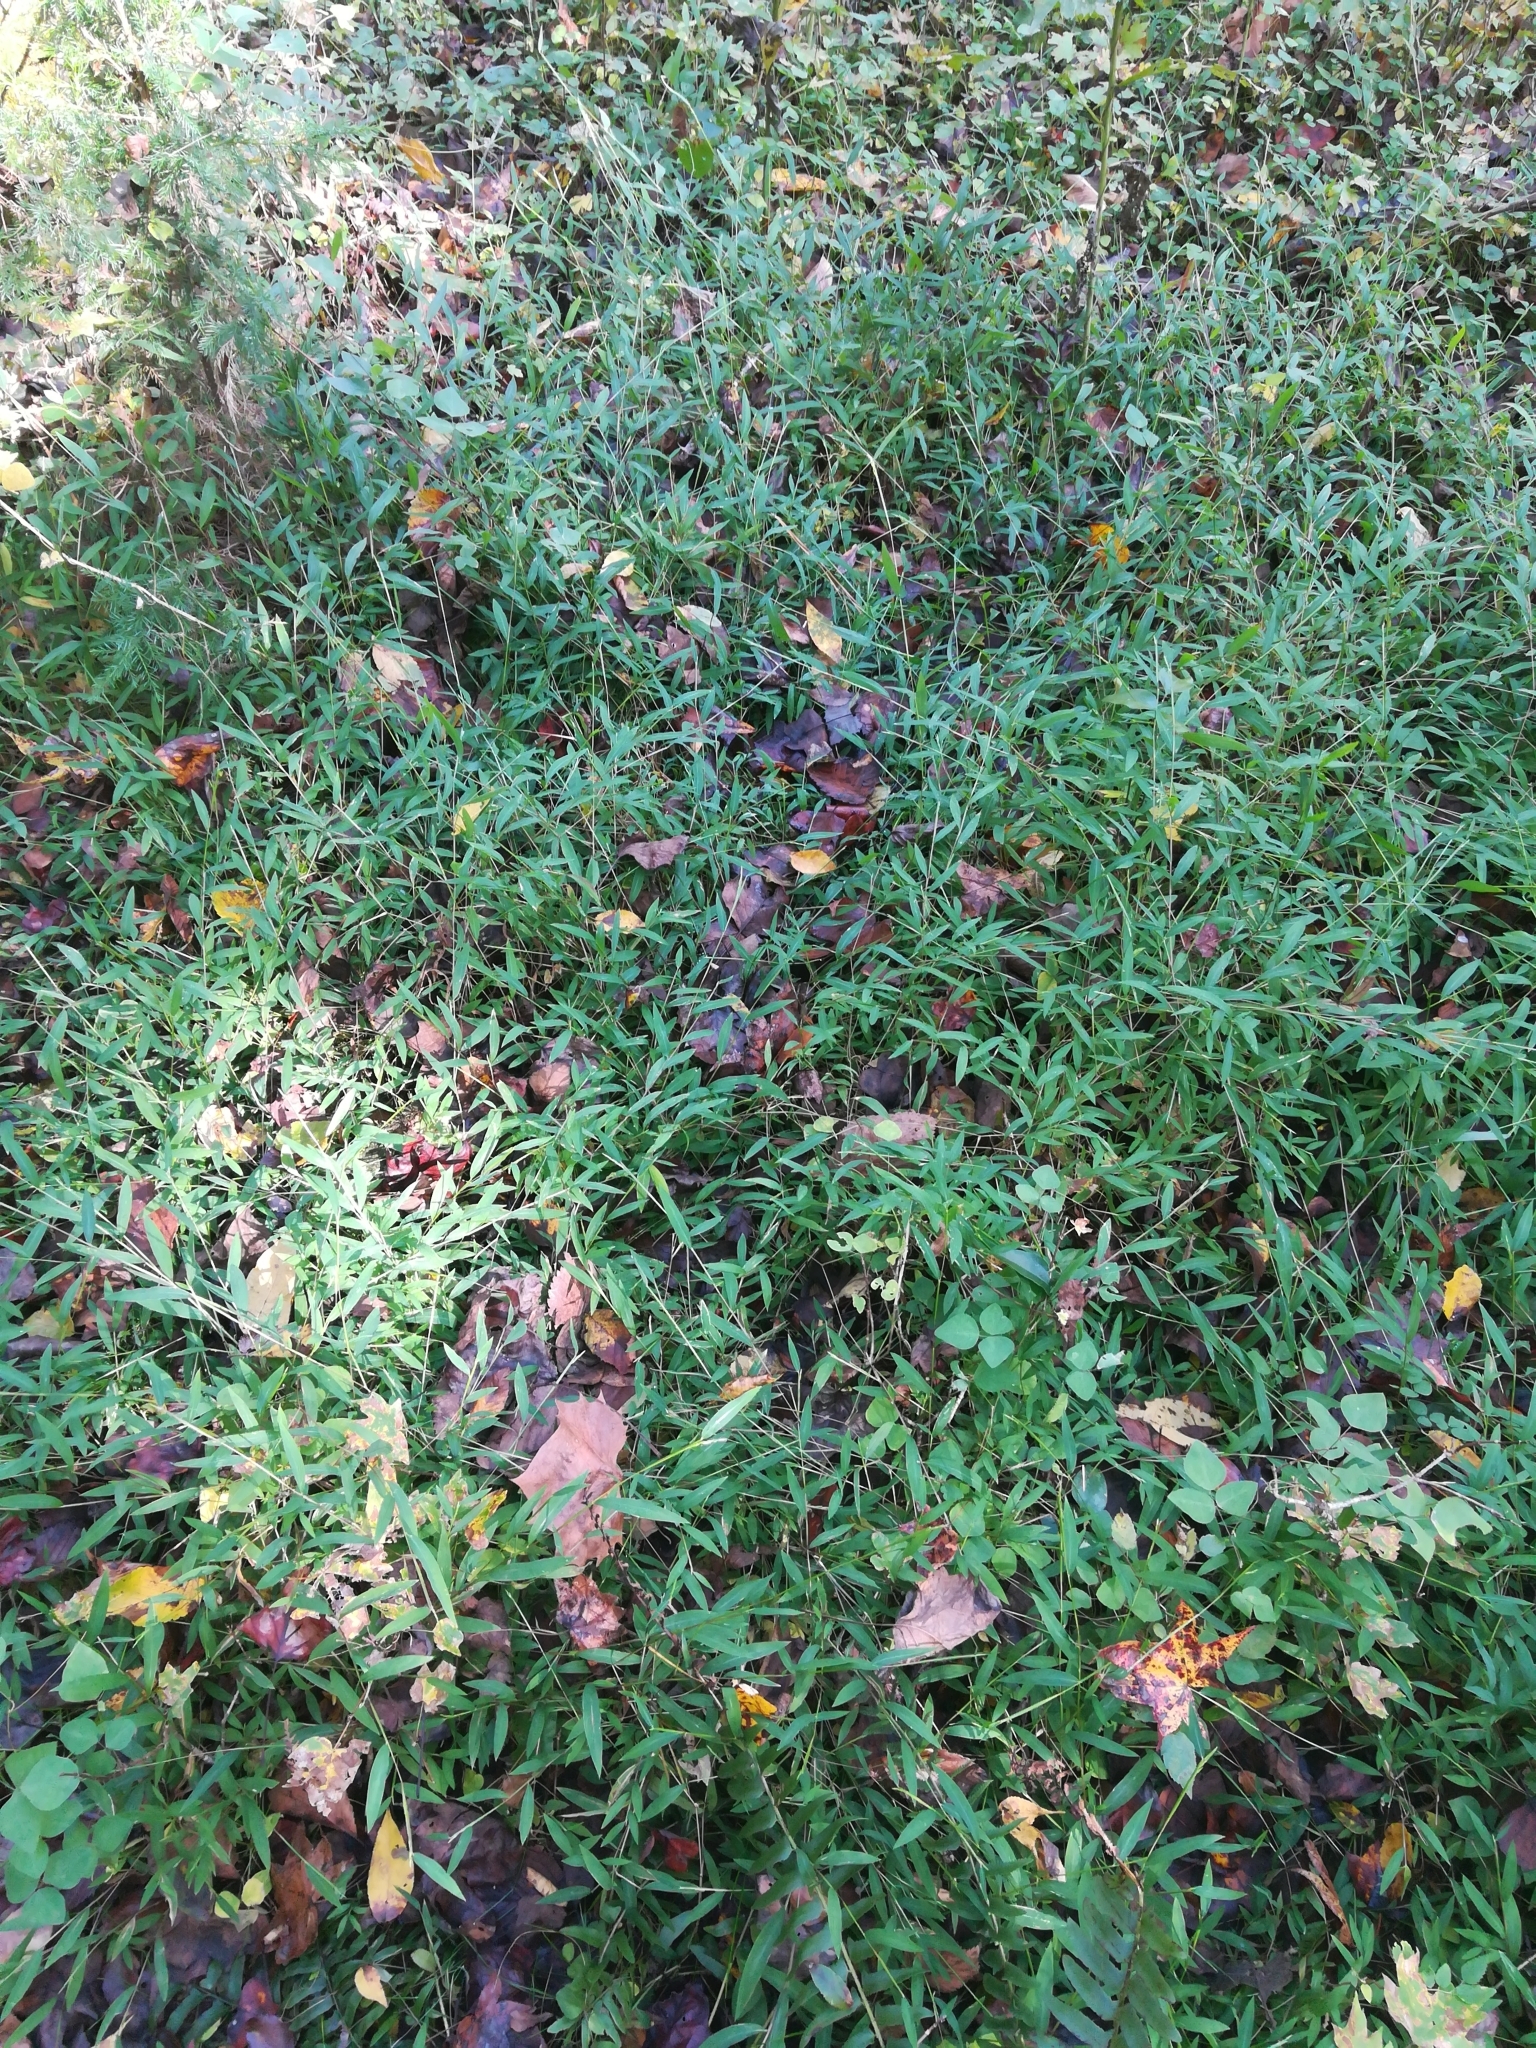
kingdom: Plantae
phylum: Tracheophyta
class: Liliopsida
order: Poales
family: Poaceae
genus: Microstegium
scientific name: Microstegium vimineum
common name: Japanese stiltgrass
